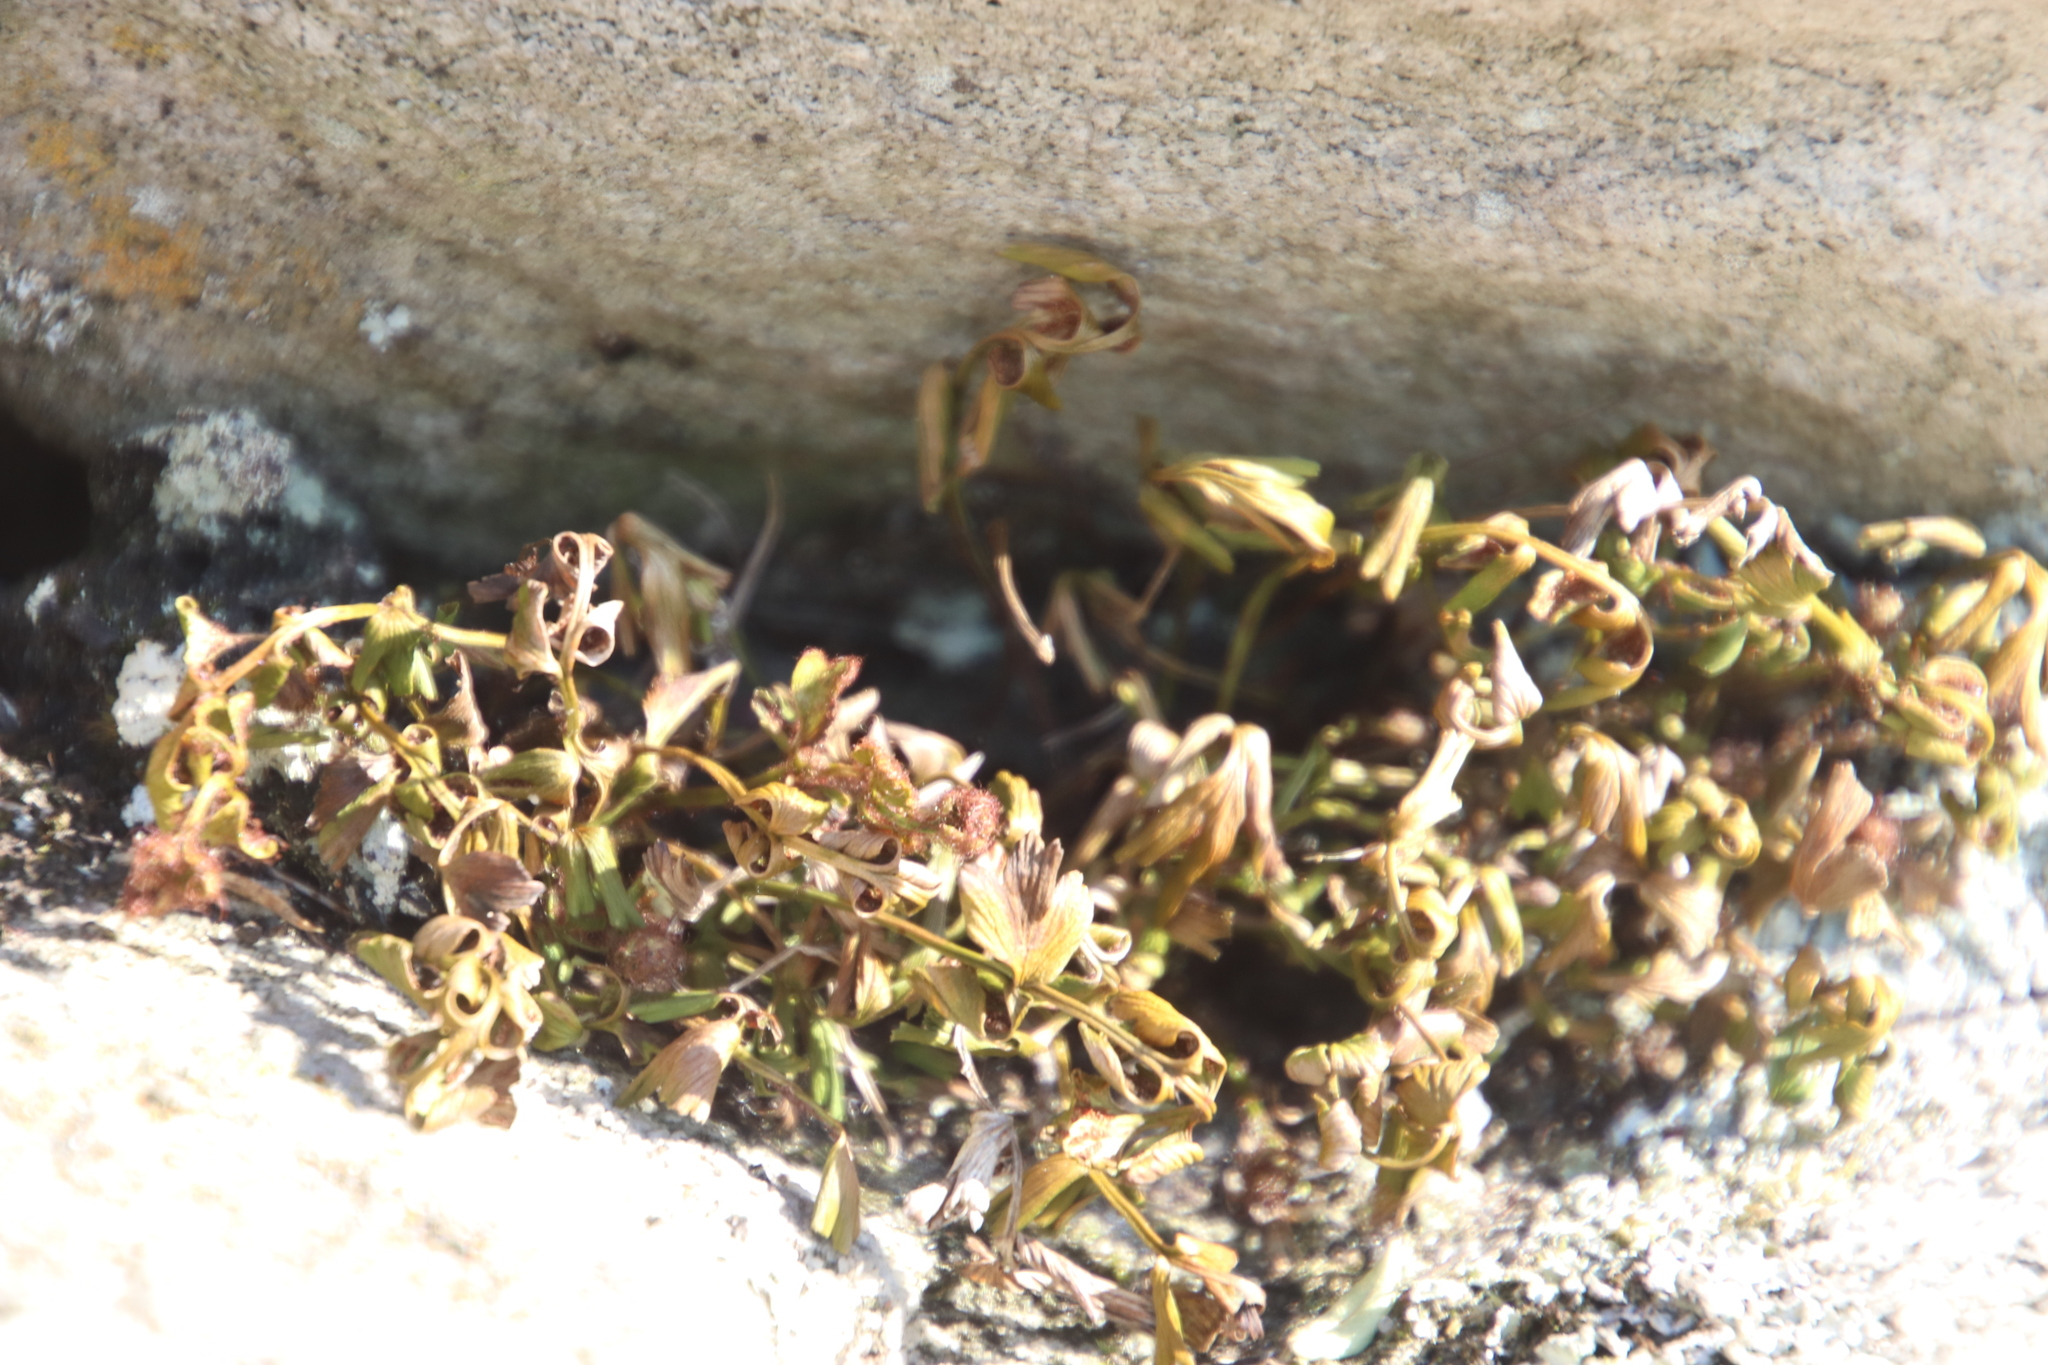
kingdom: Plantae
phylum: Tracheophyta
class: Polypodiopsida
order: Polypodiales
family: Aspleniaceae
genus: Asplenium
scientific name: Asplenium aethiopicum
